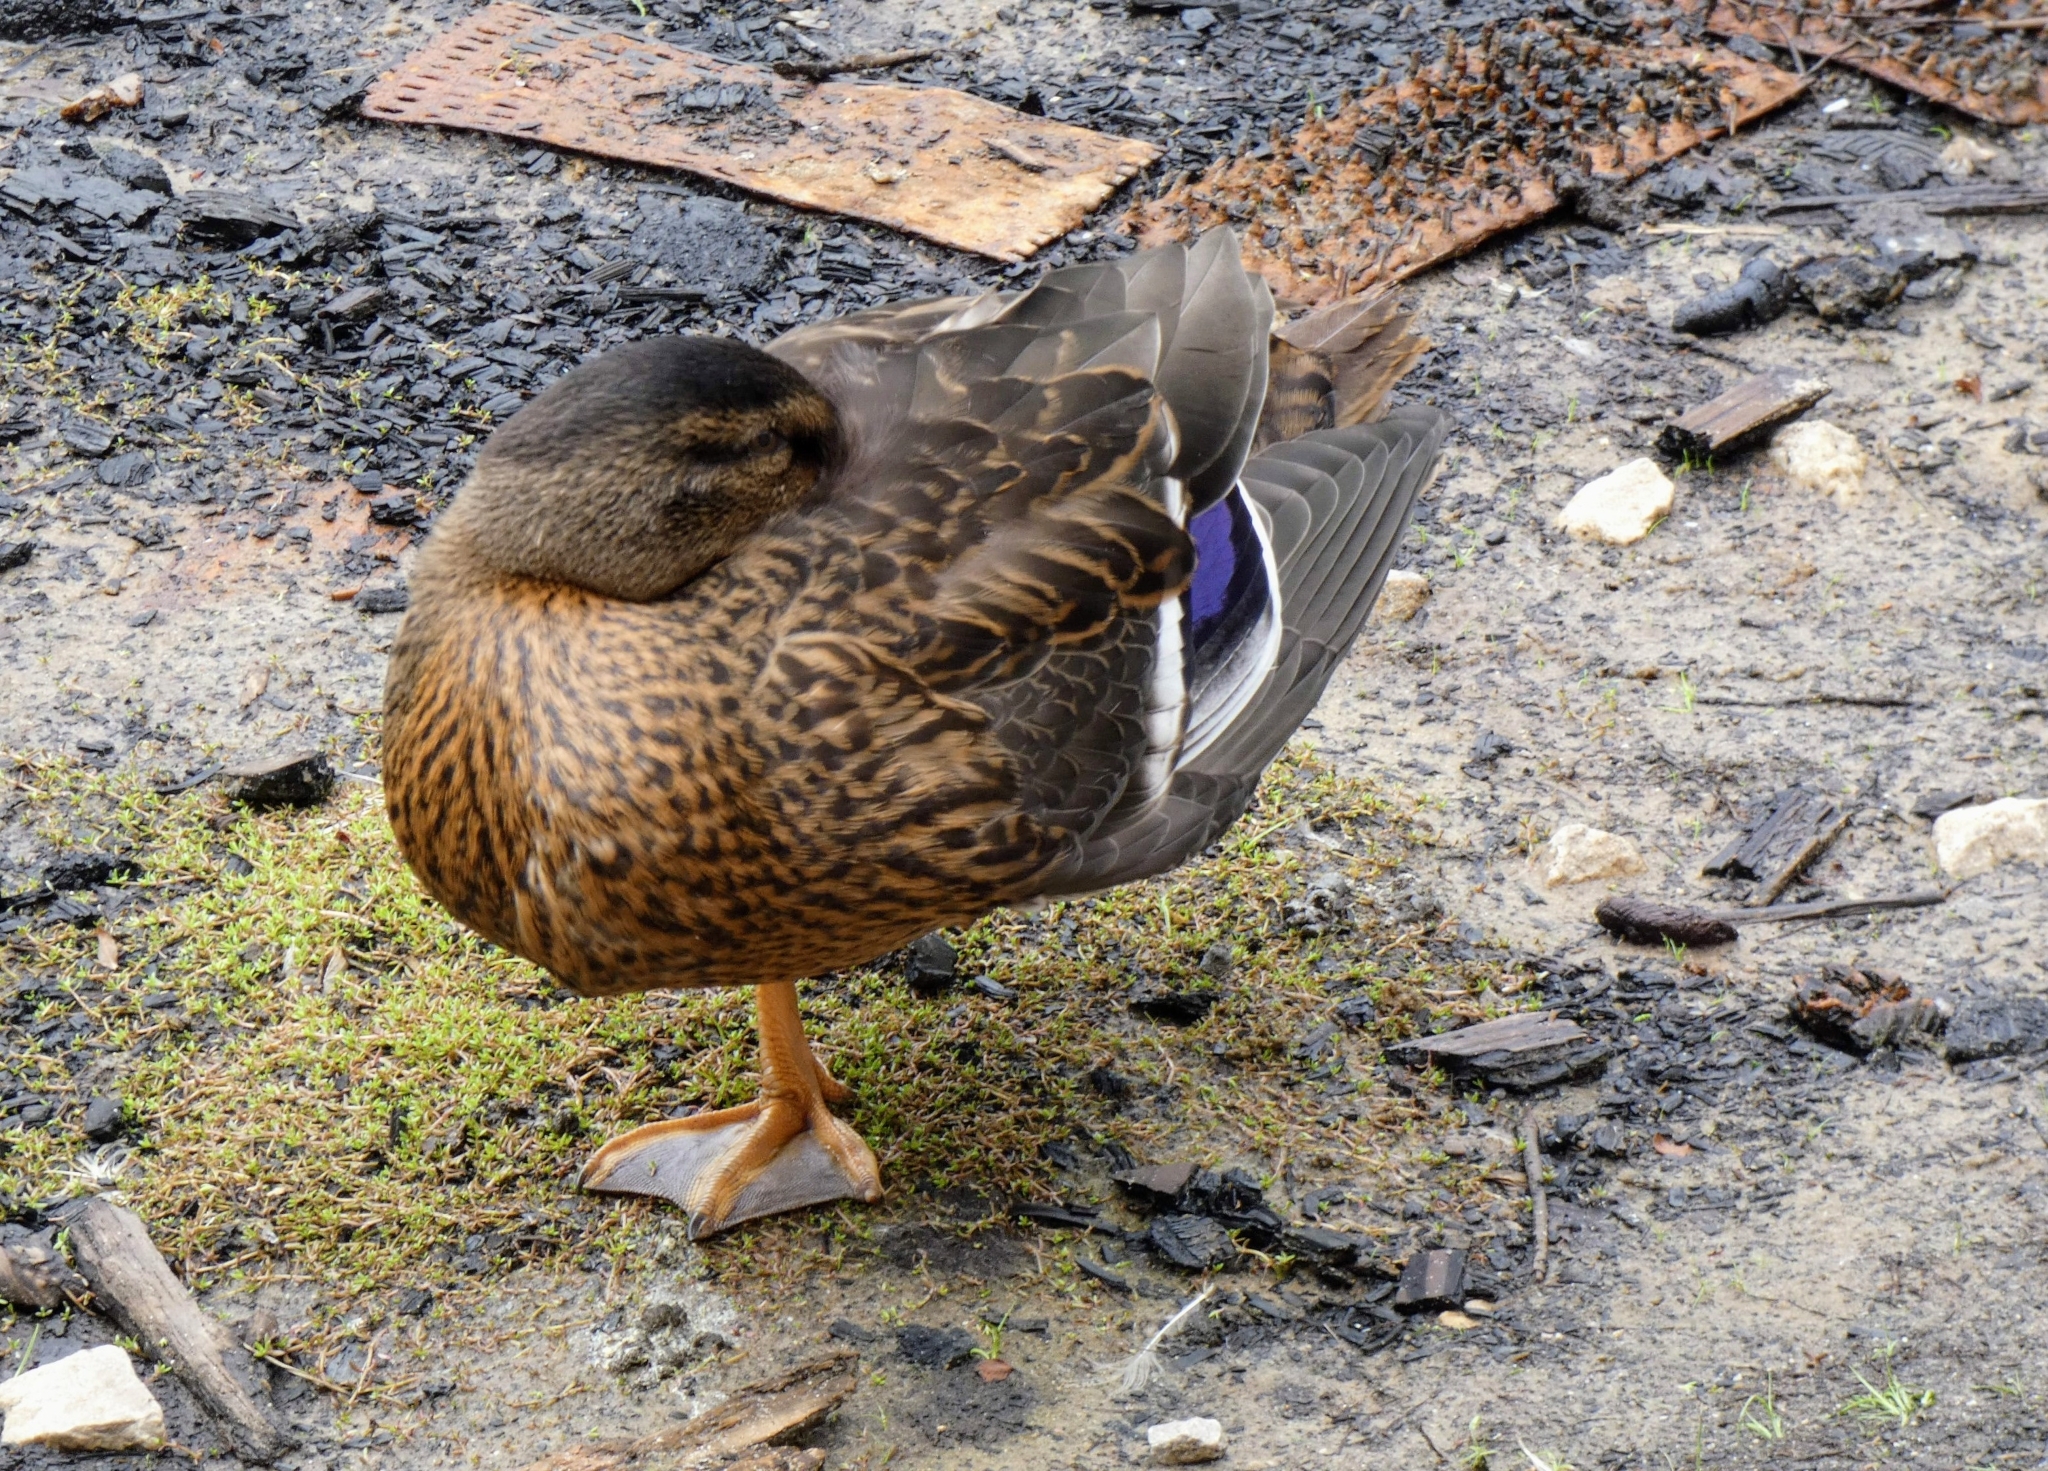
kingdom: Animalia
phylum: Chordata
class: Aves
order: Anseriformes
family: Anatidae
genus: Anas
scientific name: Anas platyrhynchos
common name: Mallard
